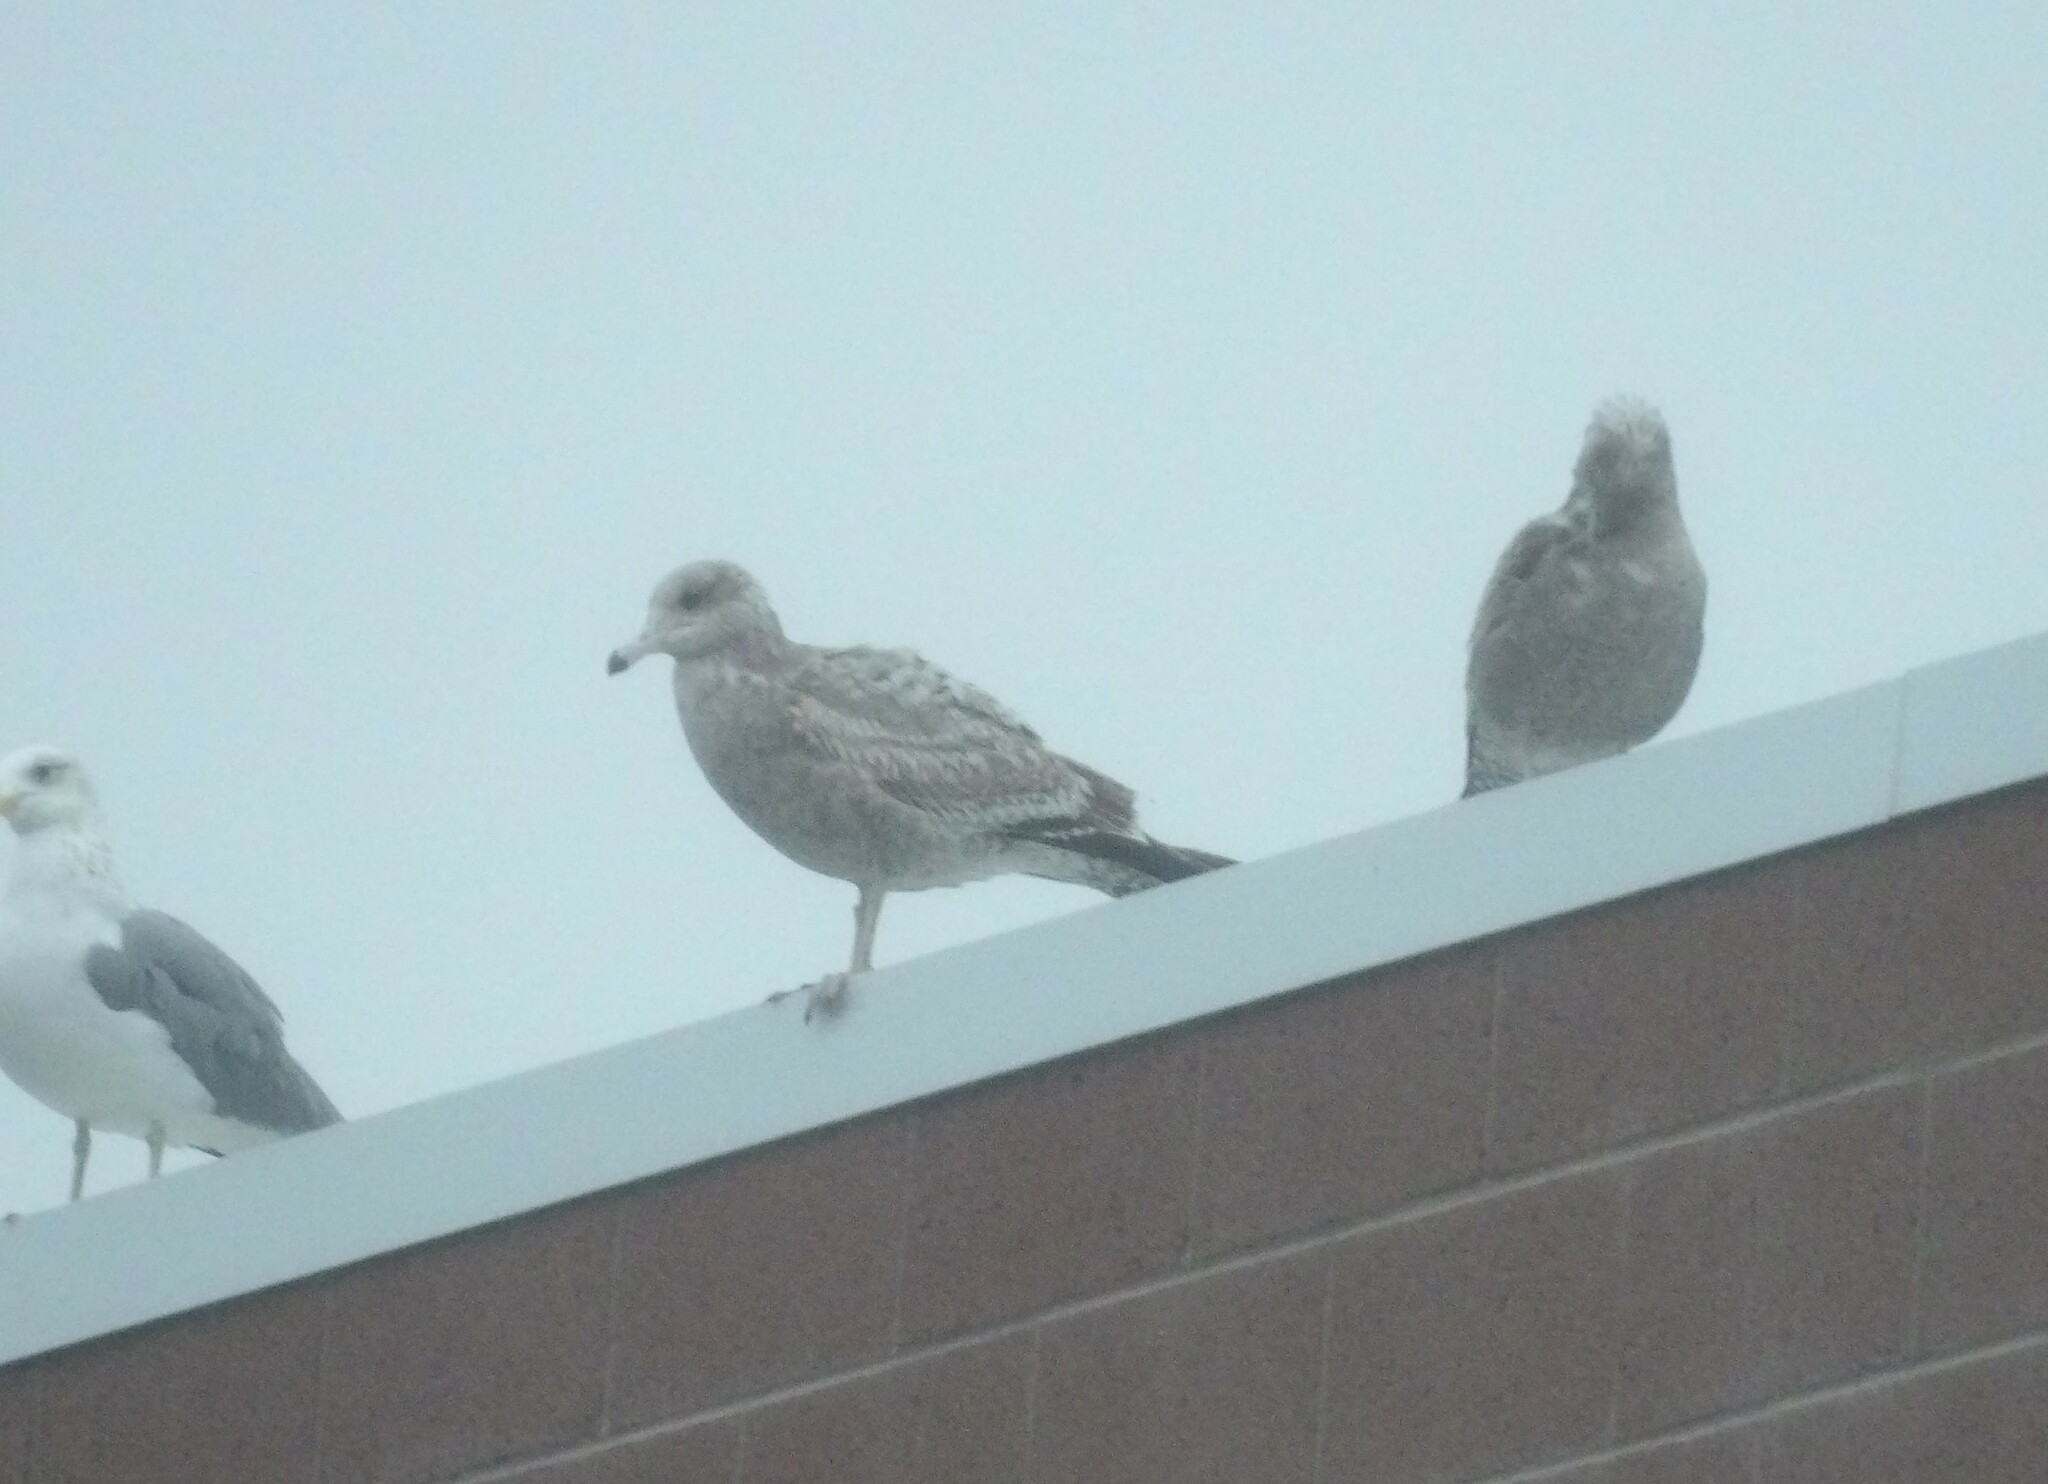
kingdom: Animalia
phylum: Chordata
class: Aves
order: Charadriiformes
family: Laridae
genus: Larus
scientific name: Larus californicus
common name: California gull
